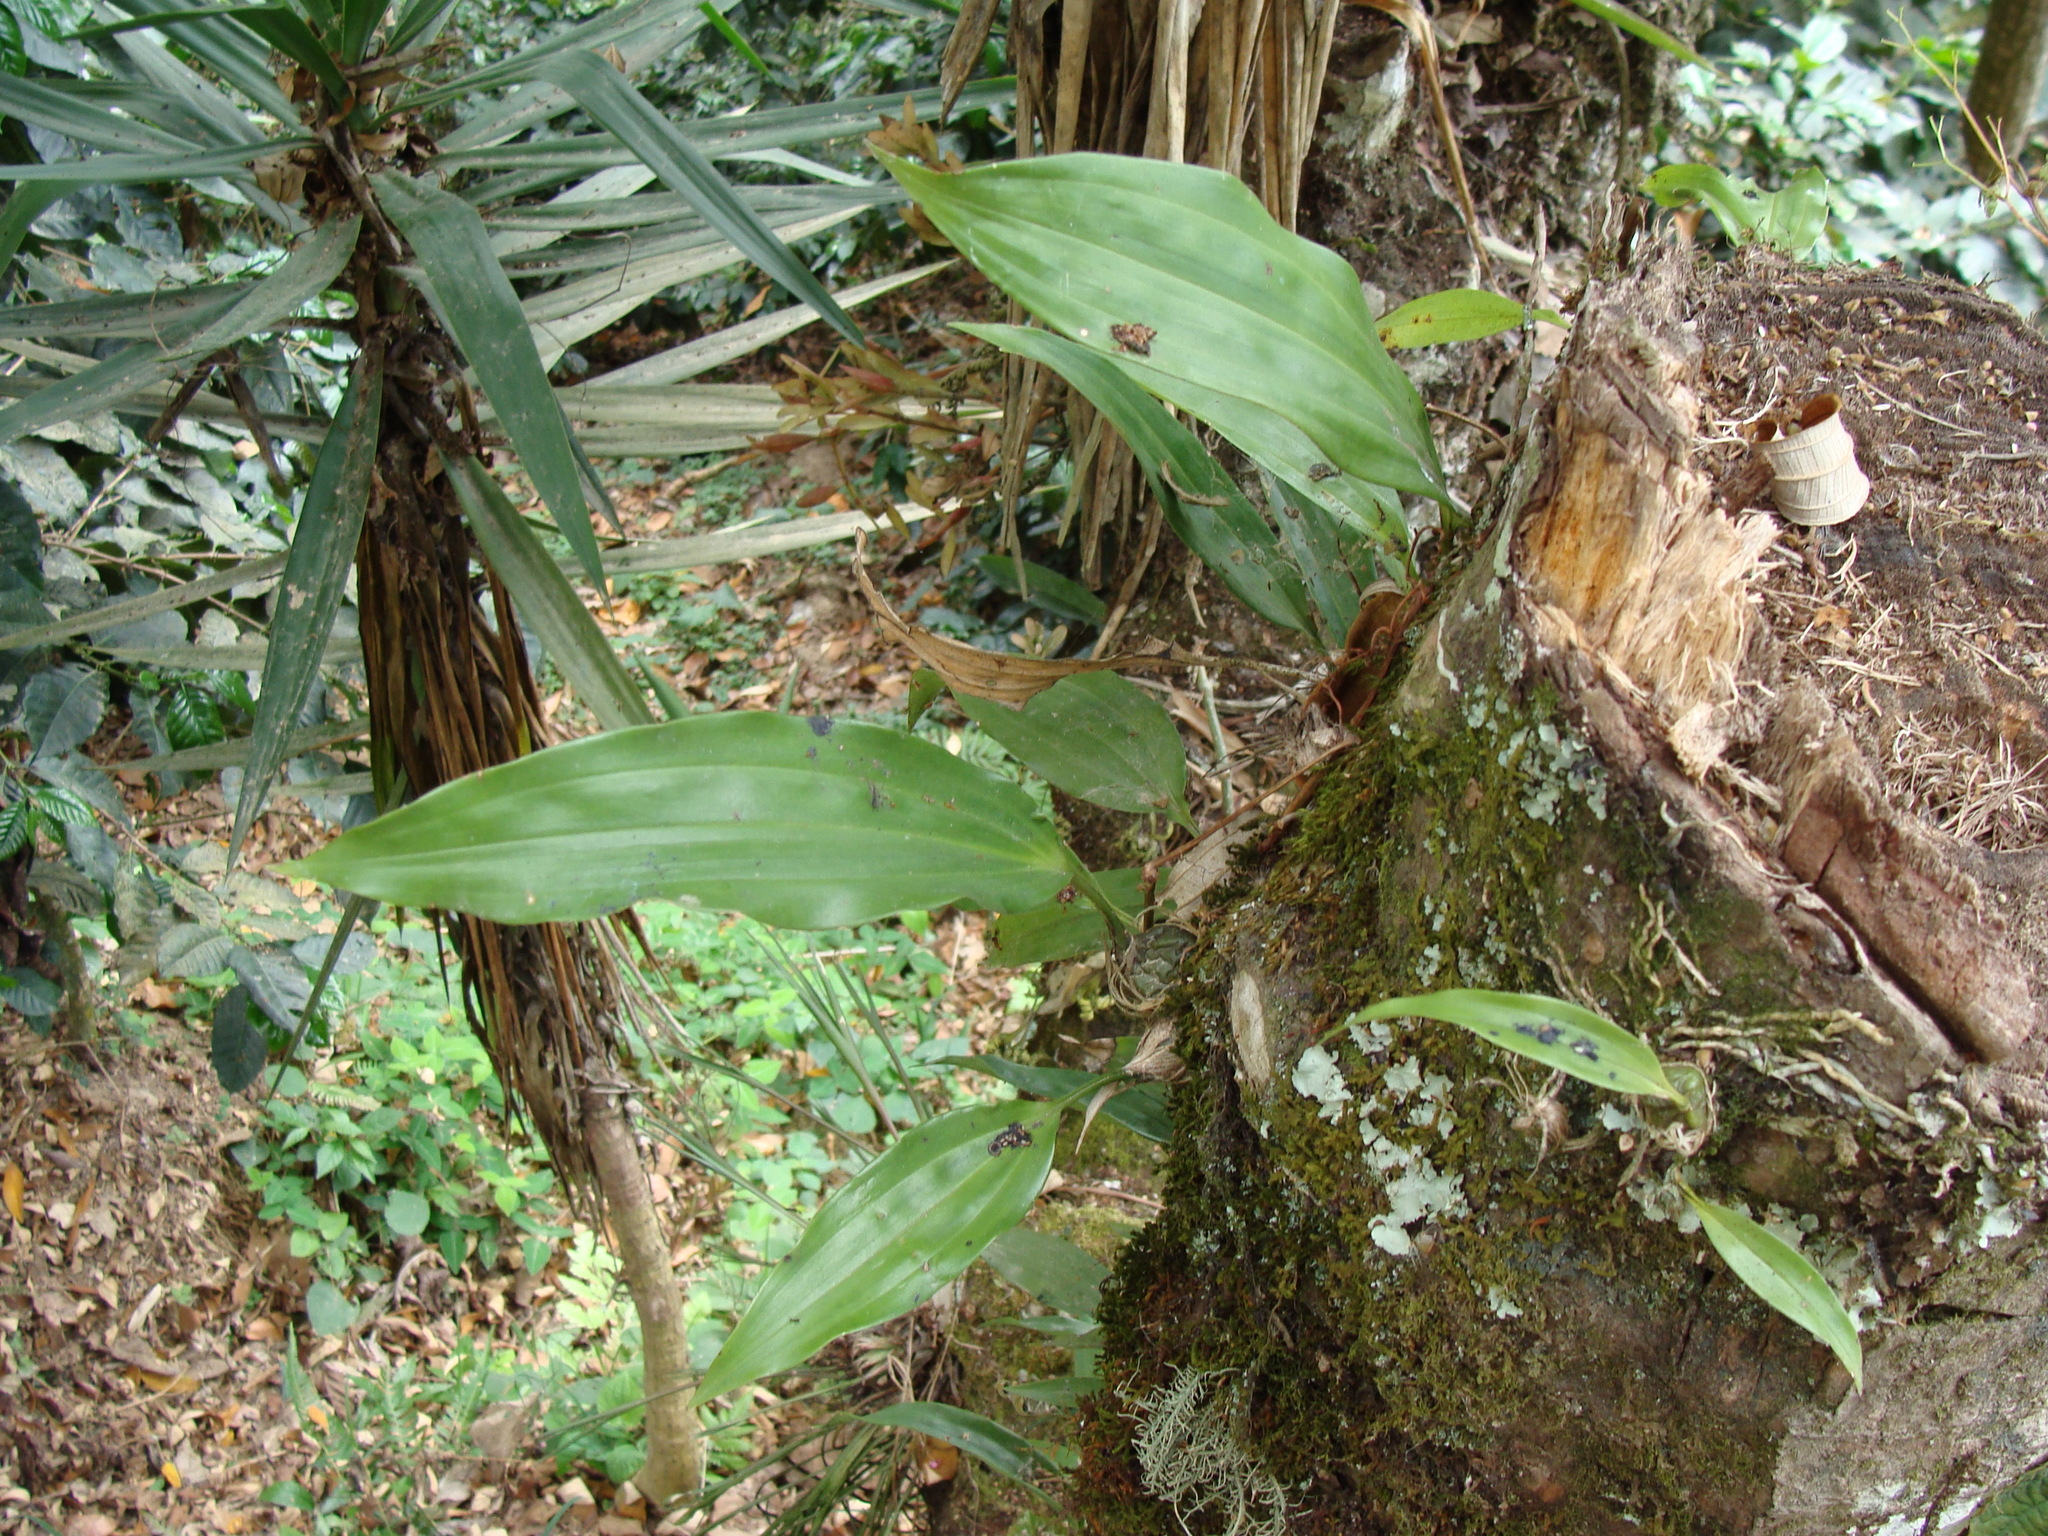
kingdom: Plantae
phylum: Tracheophyta
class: Liliopsida
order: Asparagales
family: Orchidaceae
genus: Stanhopea
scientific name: Stanhopea saccata
